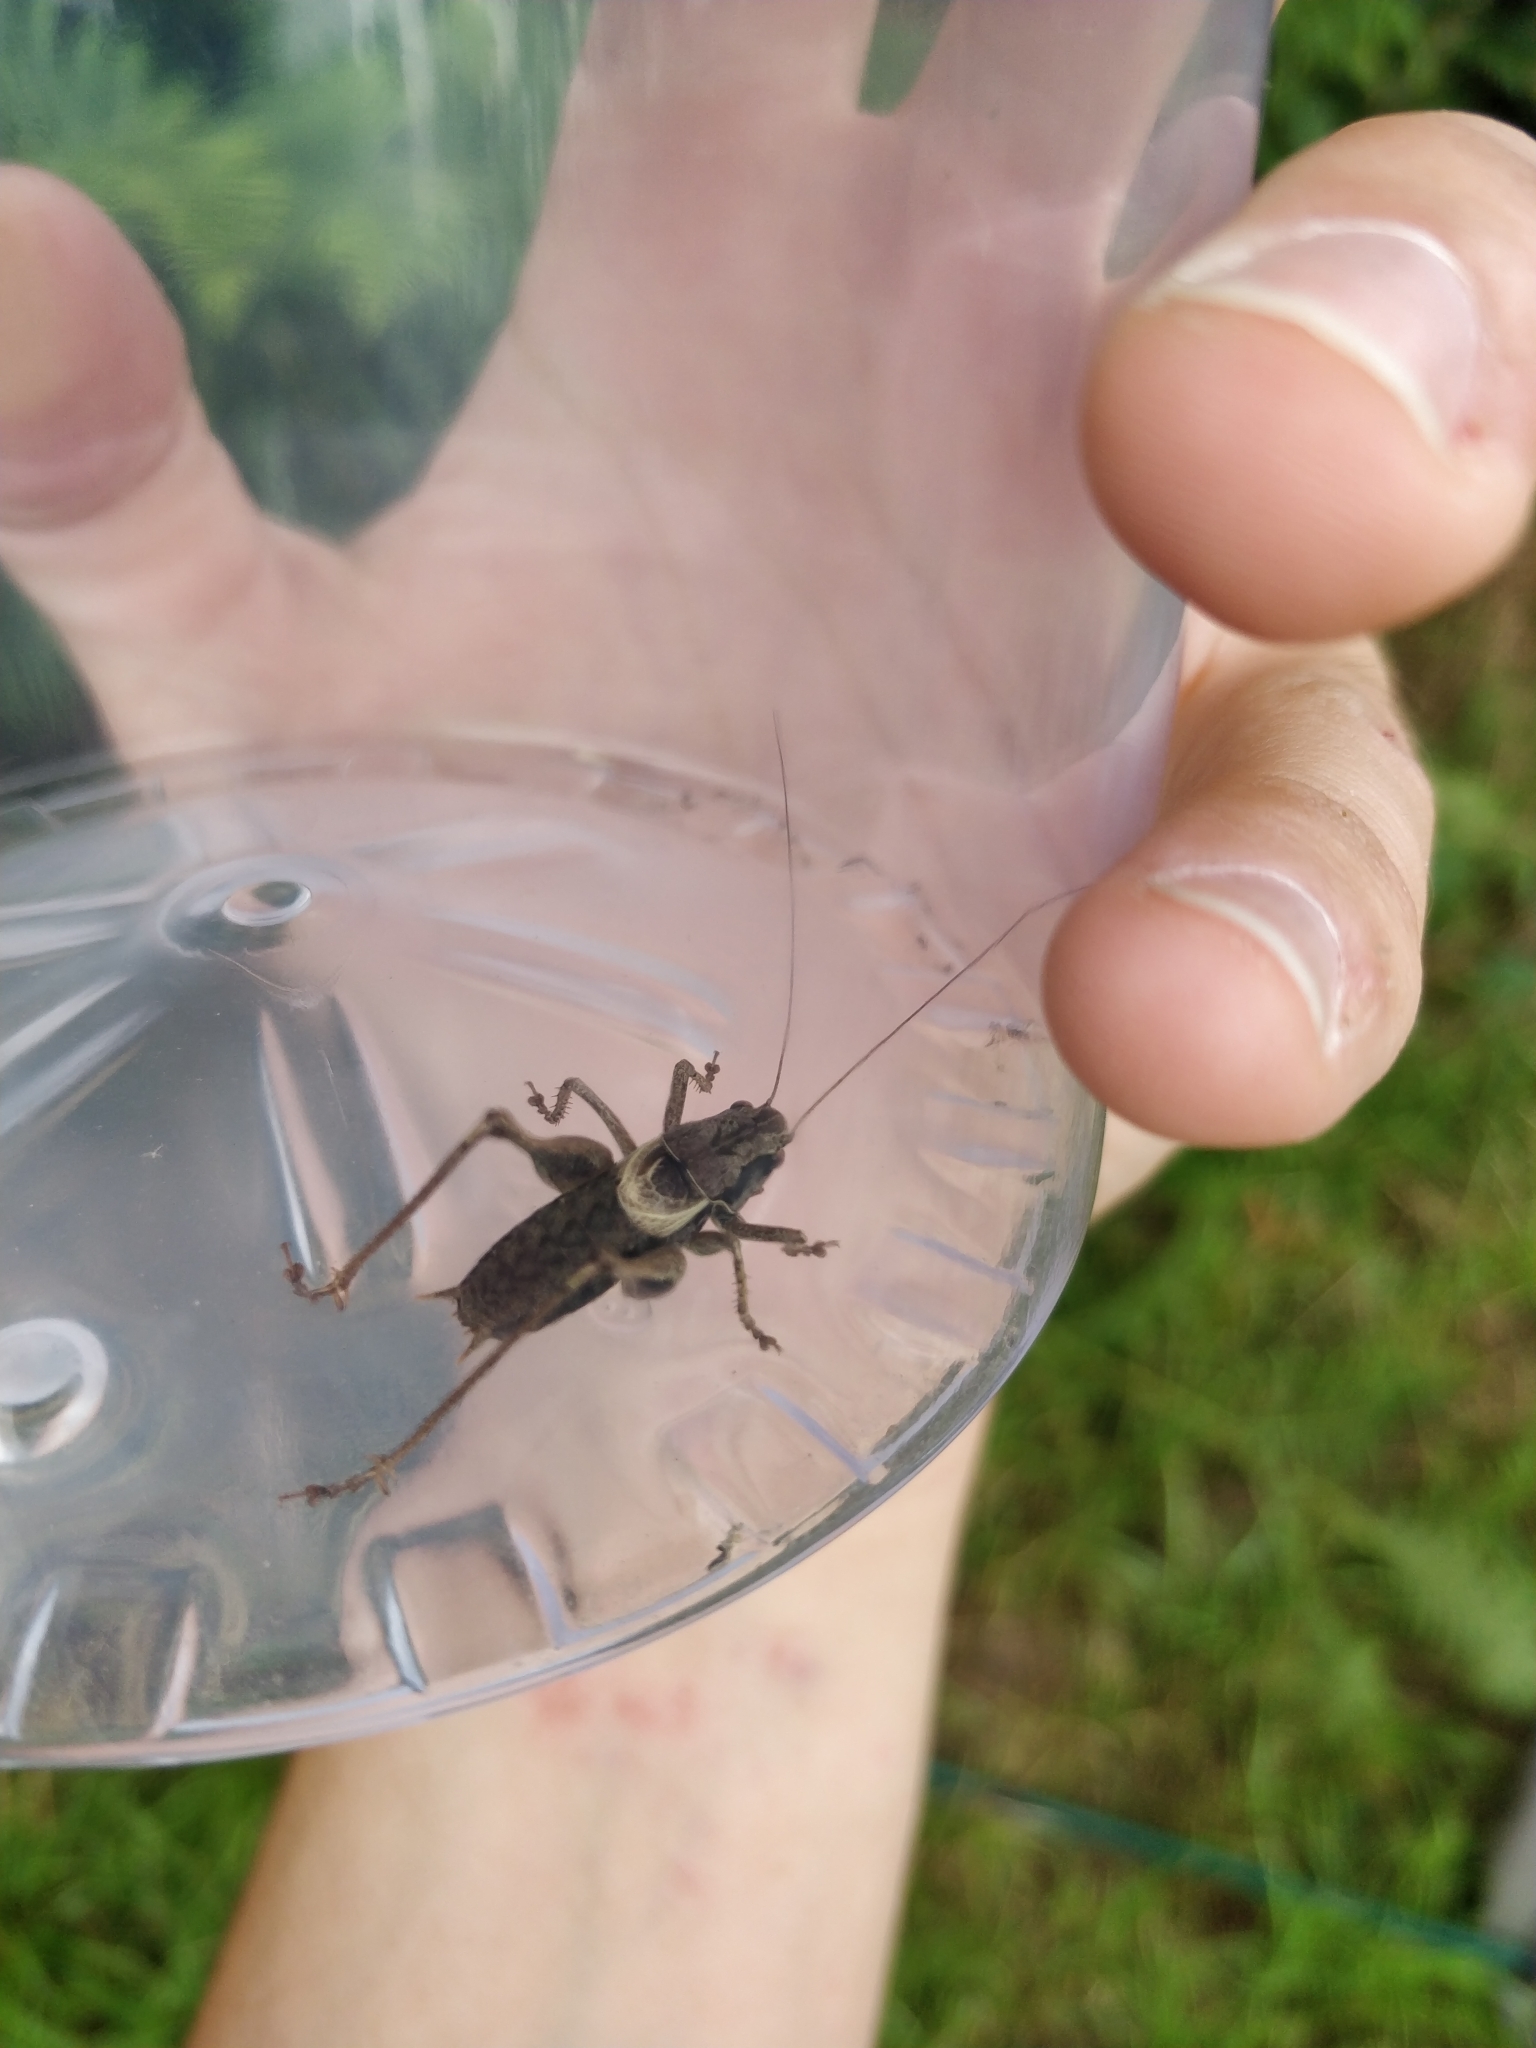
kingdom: Animalia
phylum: Arthropoda
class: Insecta
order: Orthoptera
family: Tettigoniidae
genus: Pholidoptera
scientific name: Pholidoptera griseoaptera
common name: Dark bush-cricket
